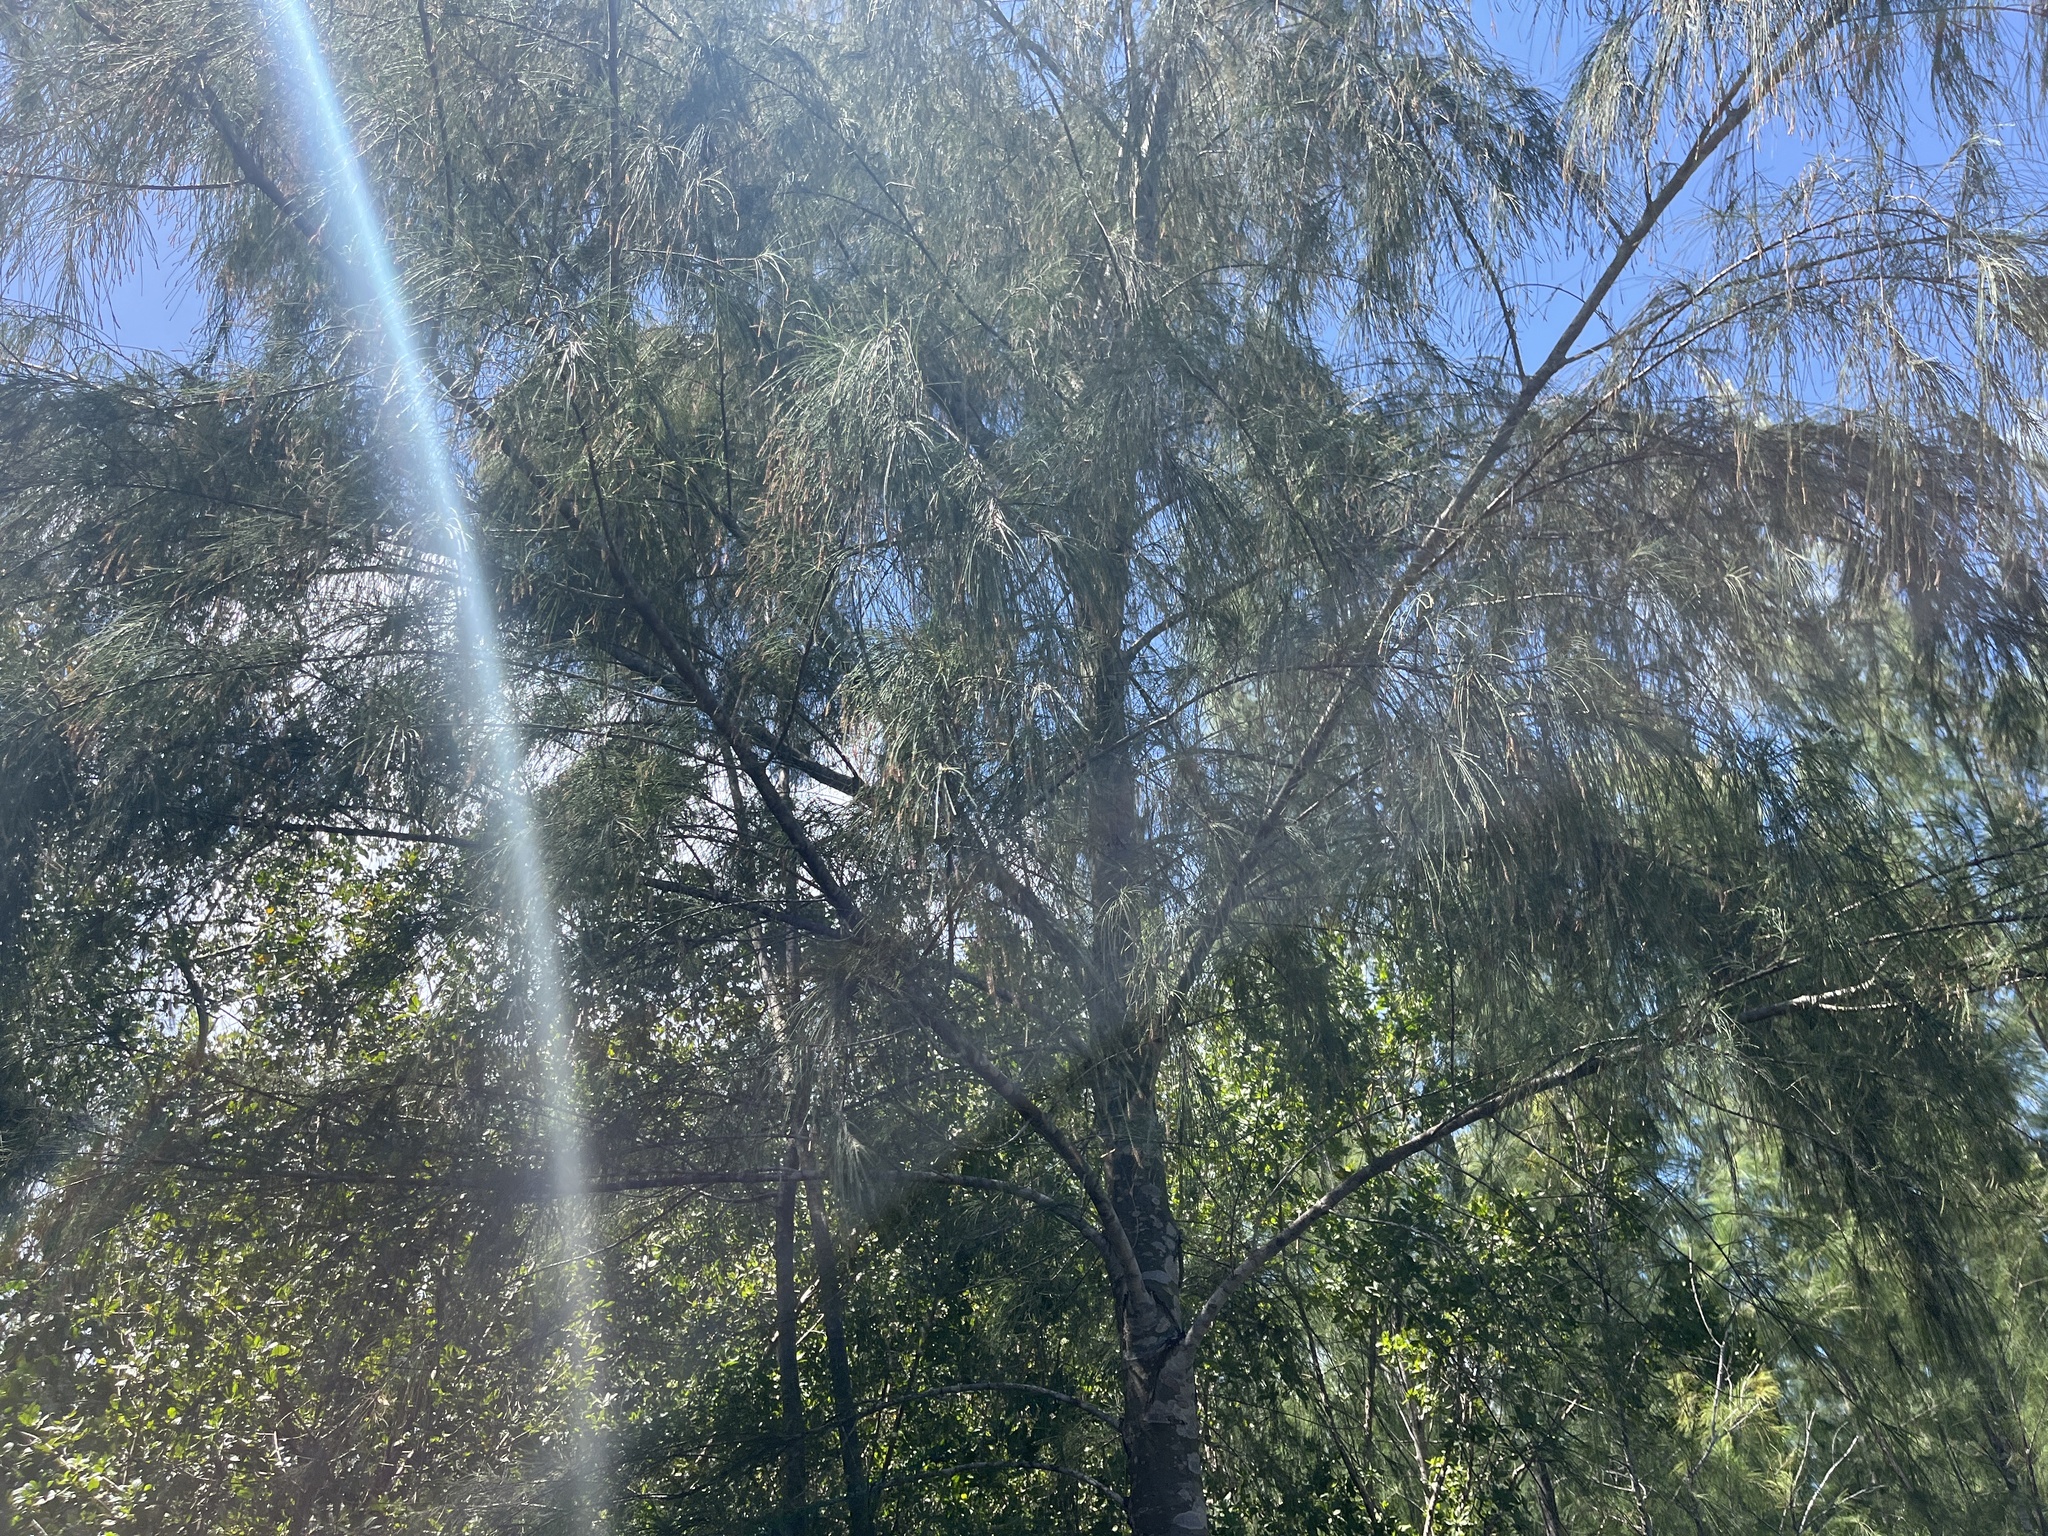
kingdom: Plantae
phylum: Tracheophyta
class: Magnoliopsida
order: Fagales
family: Casuarinaceae
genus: Casuarina
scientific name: Casuarina equisetifolia
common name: Beach sheoak
